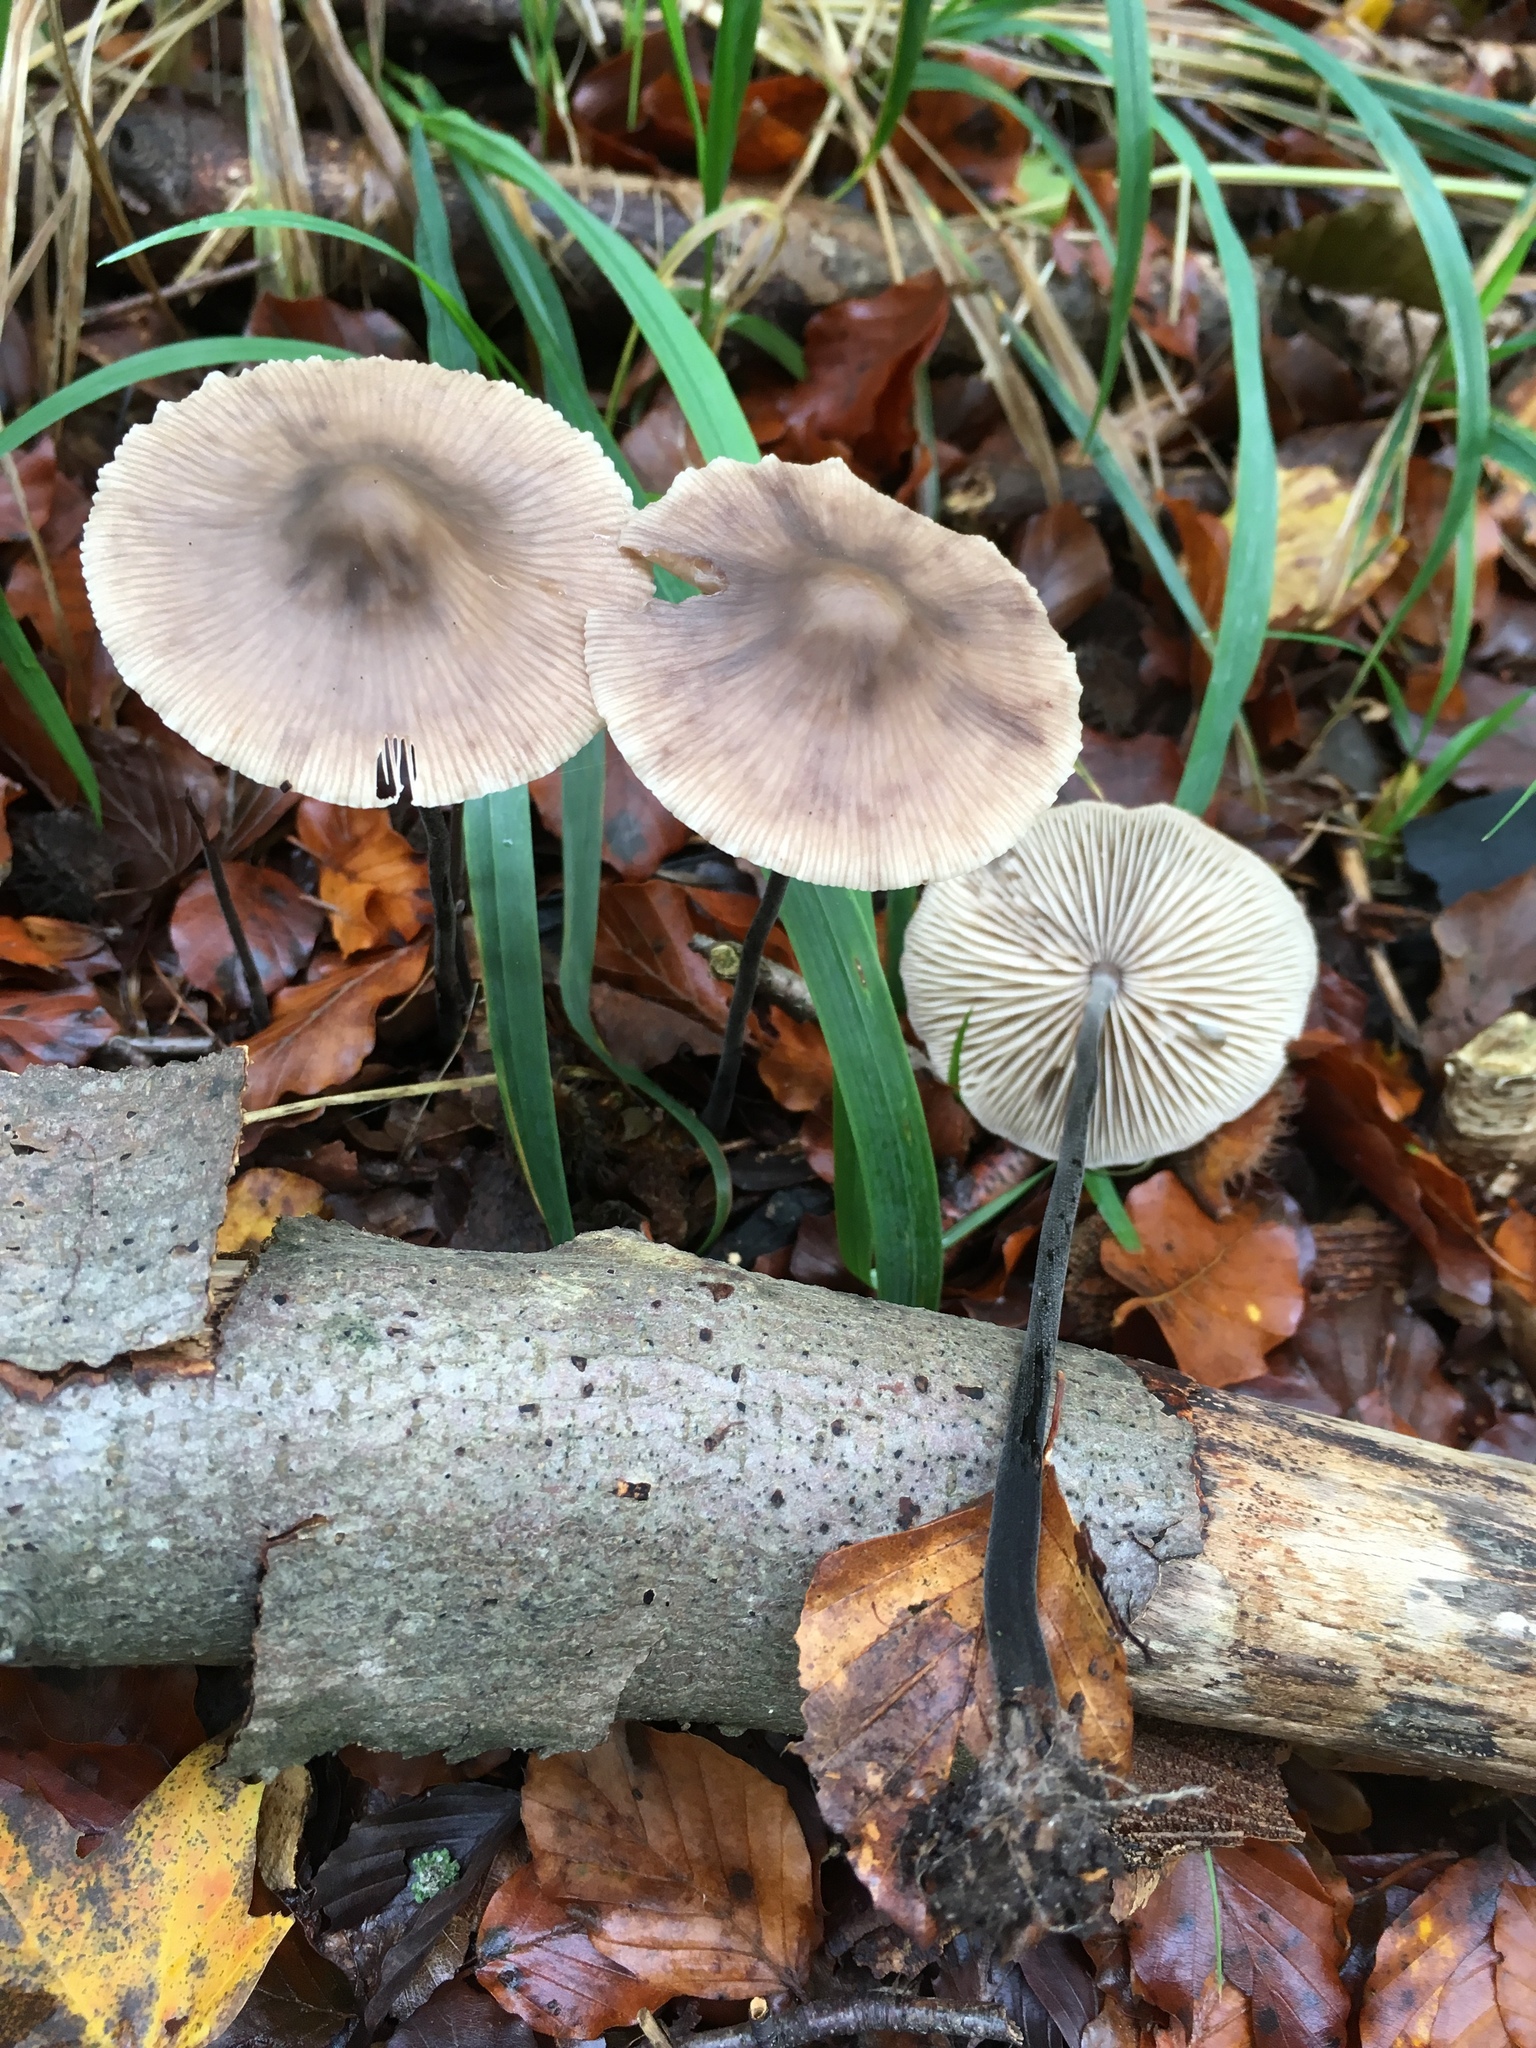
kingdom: Fungi
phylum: Basidiomycota
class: Agaricomycetes
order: Agaricales
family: Omphalotaceae
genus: Mycetinis
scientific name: Mycetinis alliaceus
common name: Garlic parachute
